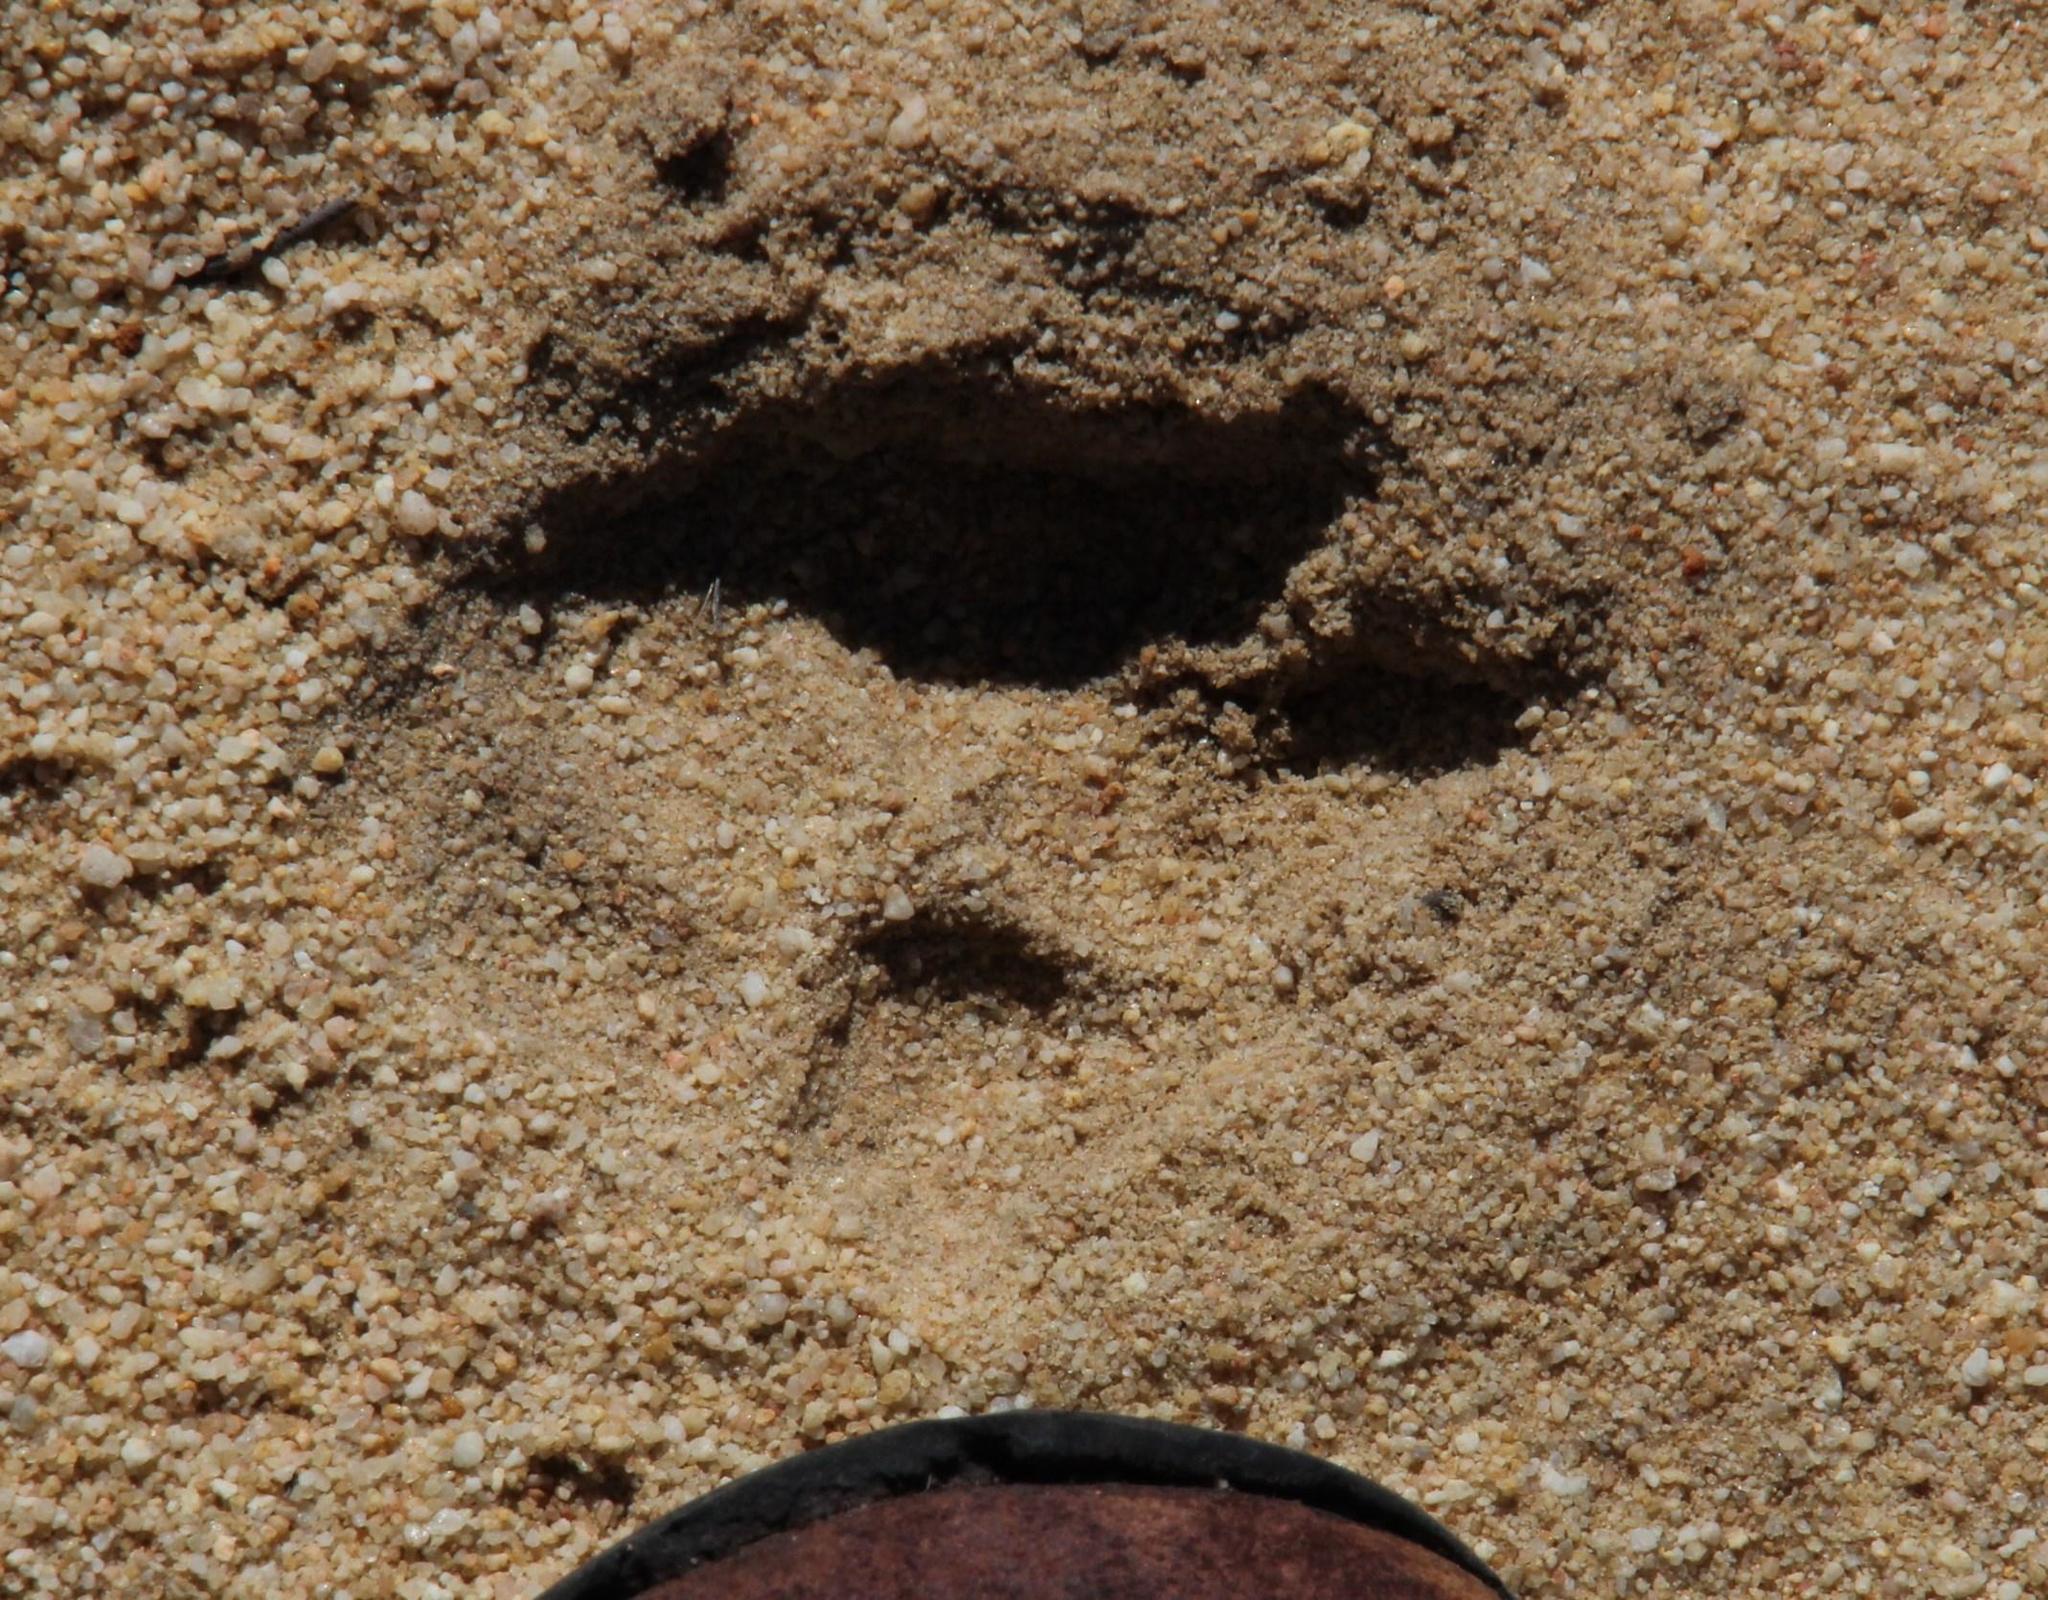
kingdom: Animalia
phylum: Chordata
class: Mammalia
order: Carnivora
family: Canidae
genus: Vulpes
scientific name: Vulpes chama
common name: Cape fox
